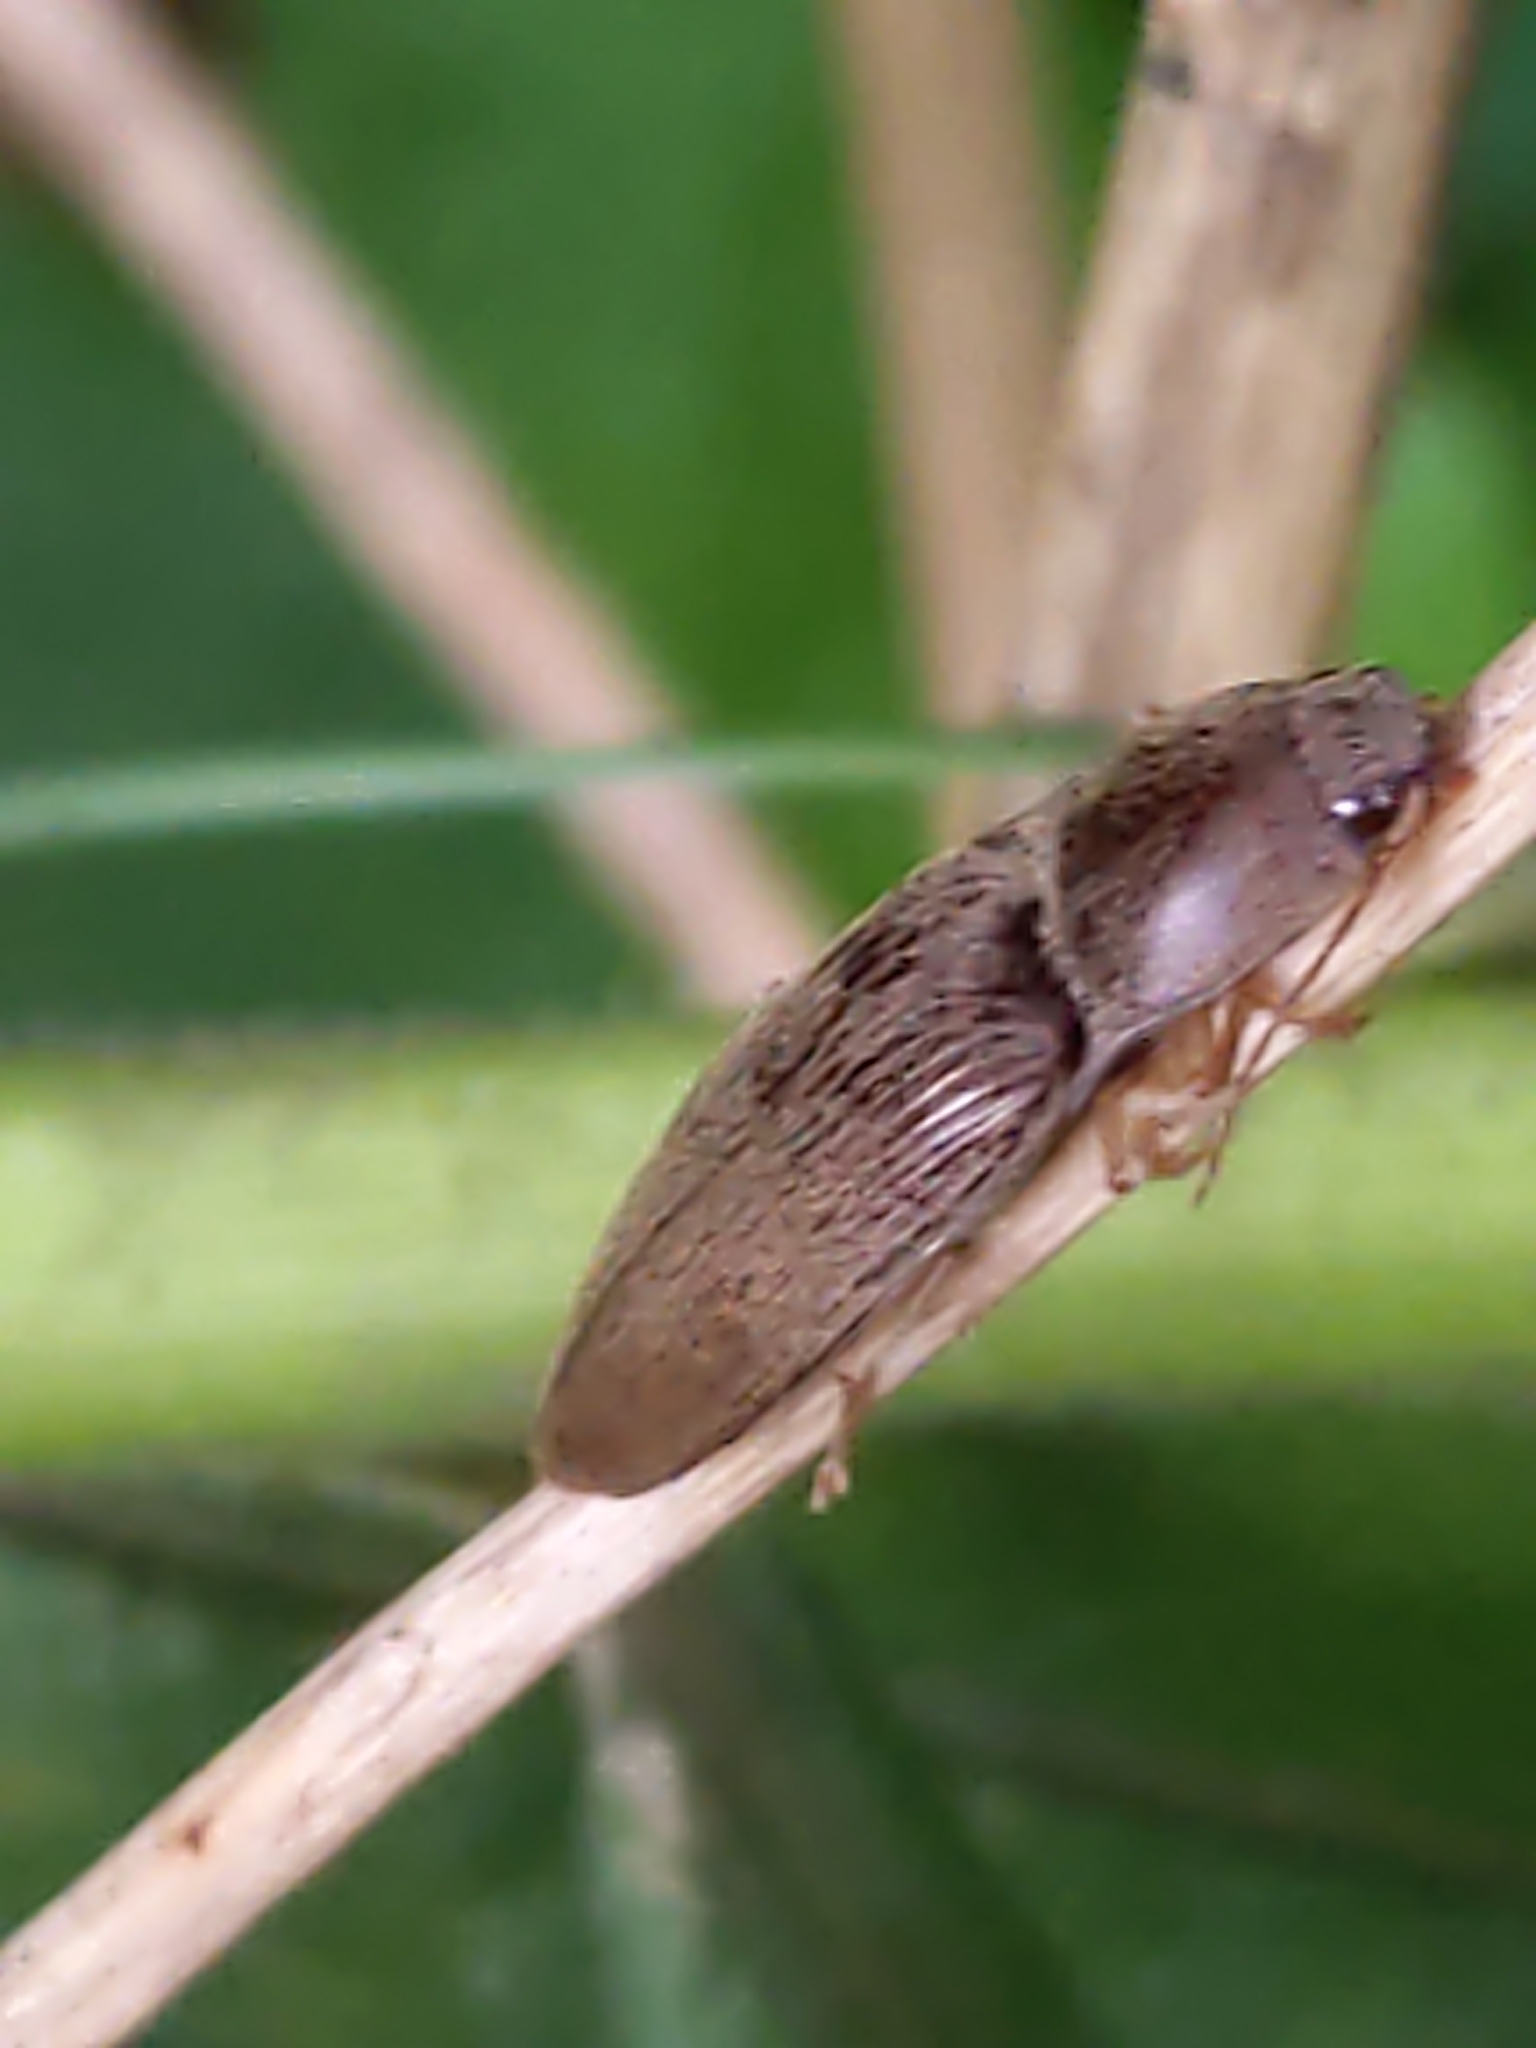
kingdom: Animalia
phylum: Arthropoda
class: Insecta
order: Coleoptera
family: Elateridae
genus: Monocrepidius
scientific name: Monocrepidius lividus
